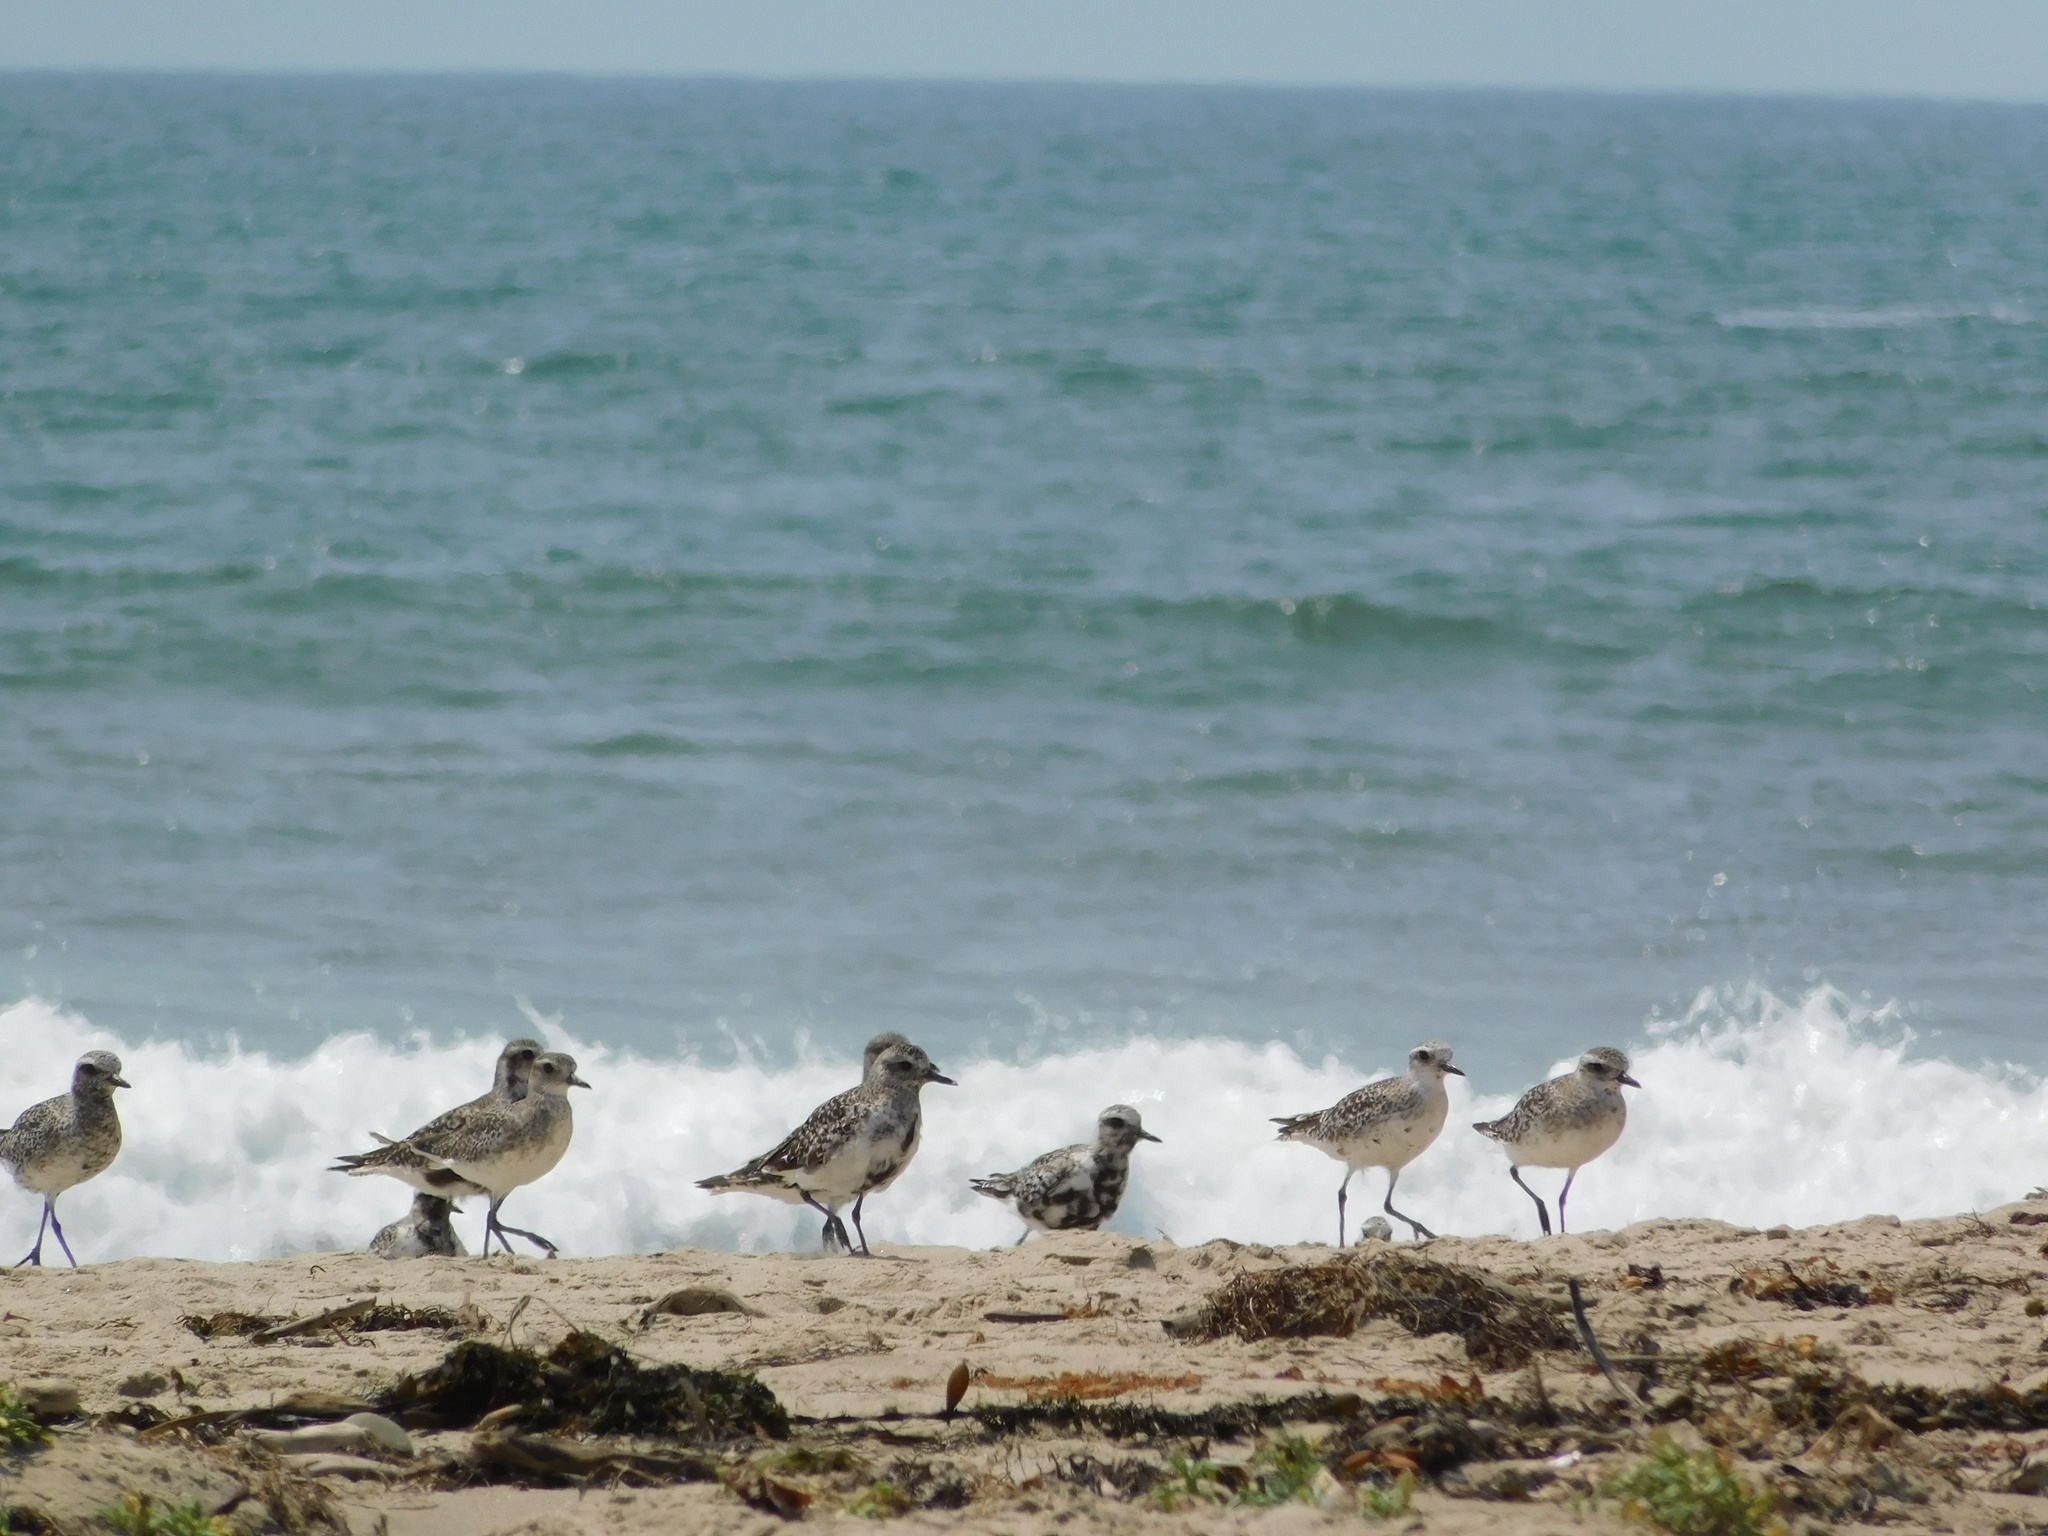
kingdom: Animalia
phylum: Chordata
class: Aves
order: Charadriiformes
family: Charadriidae
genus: Pluvialis
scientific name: Pluvialis squatarola
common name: Grey plover
